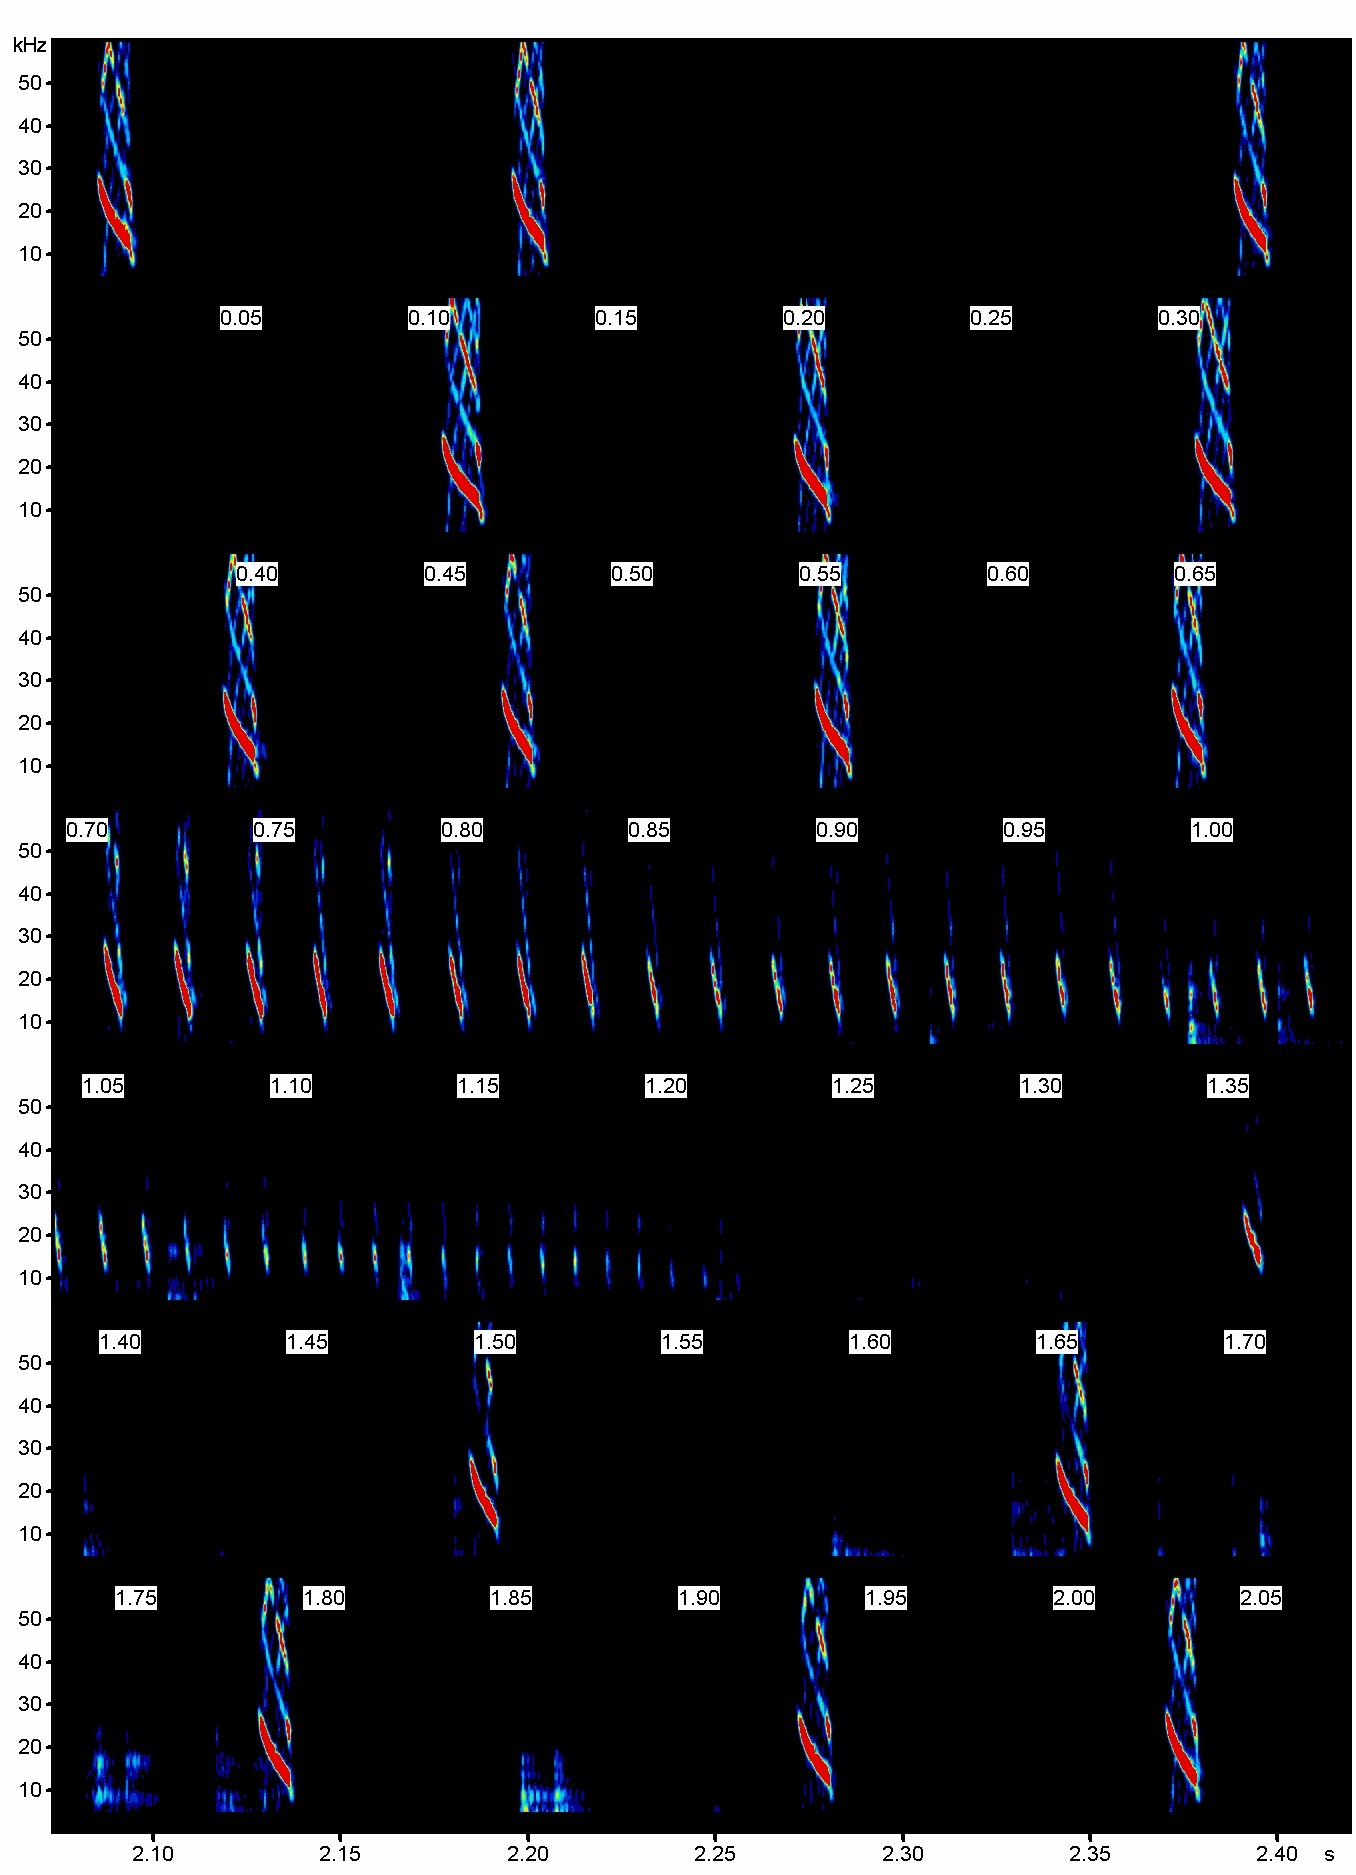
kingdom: Animalia
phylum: Chordata
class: Mammalia
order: Chiroptera
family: Vespertilionidae
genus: Myotis
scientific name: Myotis vivesi
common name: Fish-eating myotis
